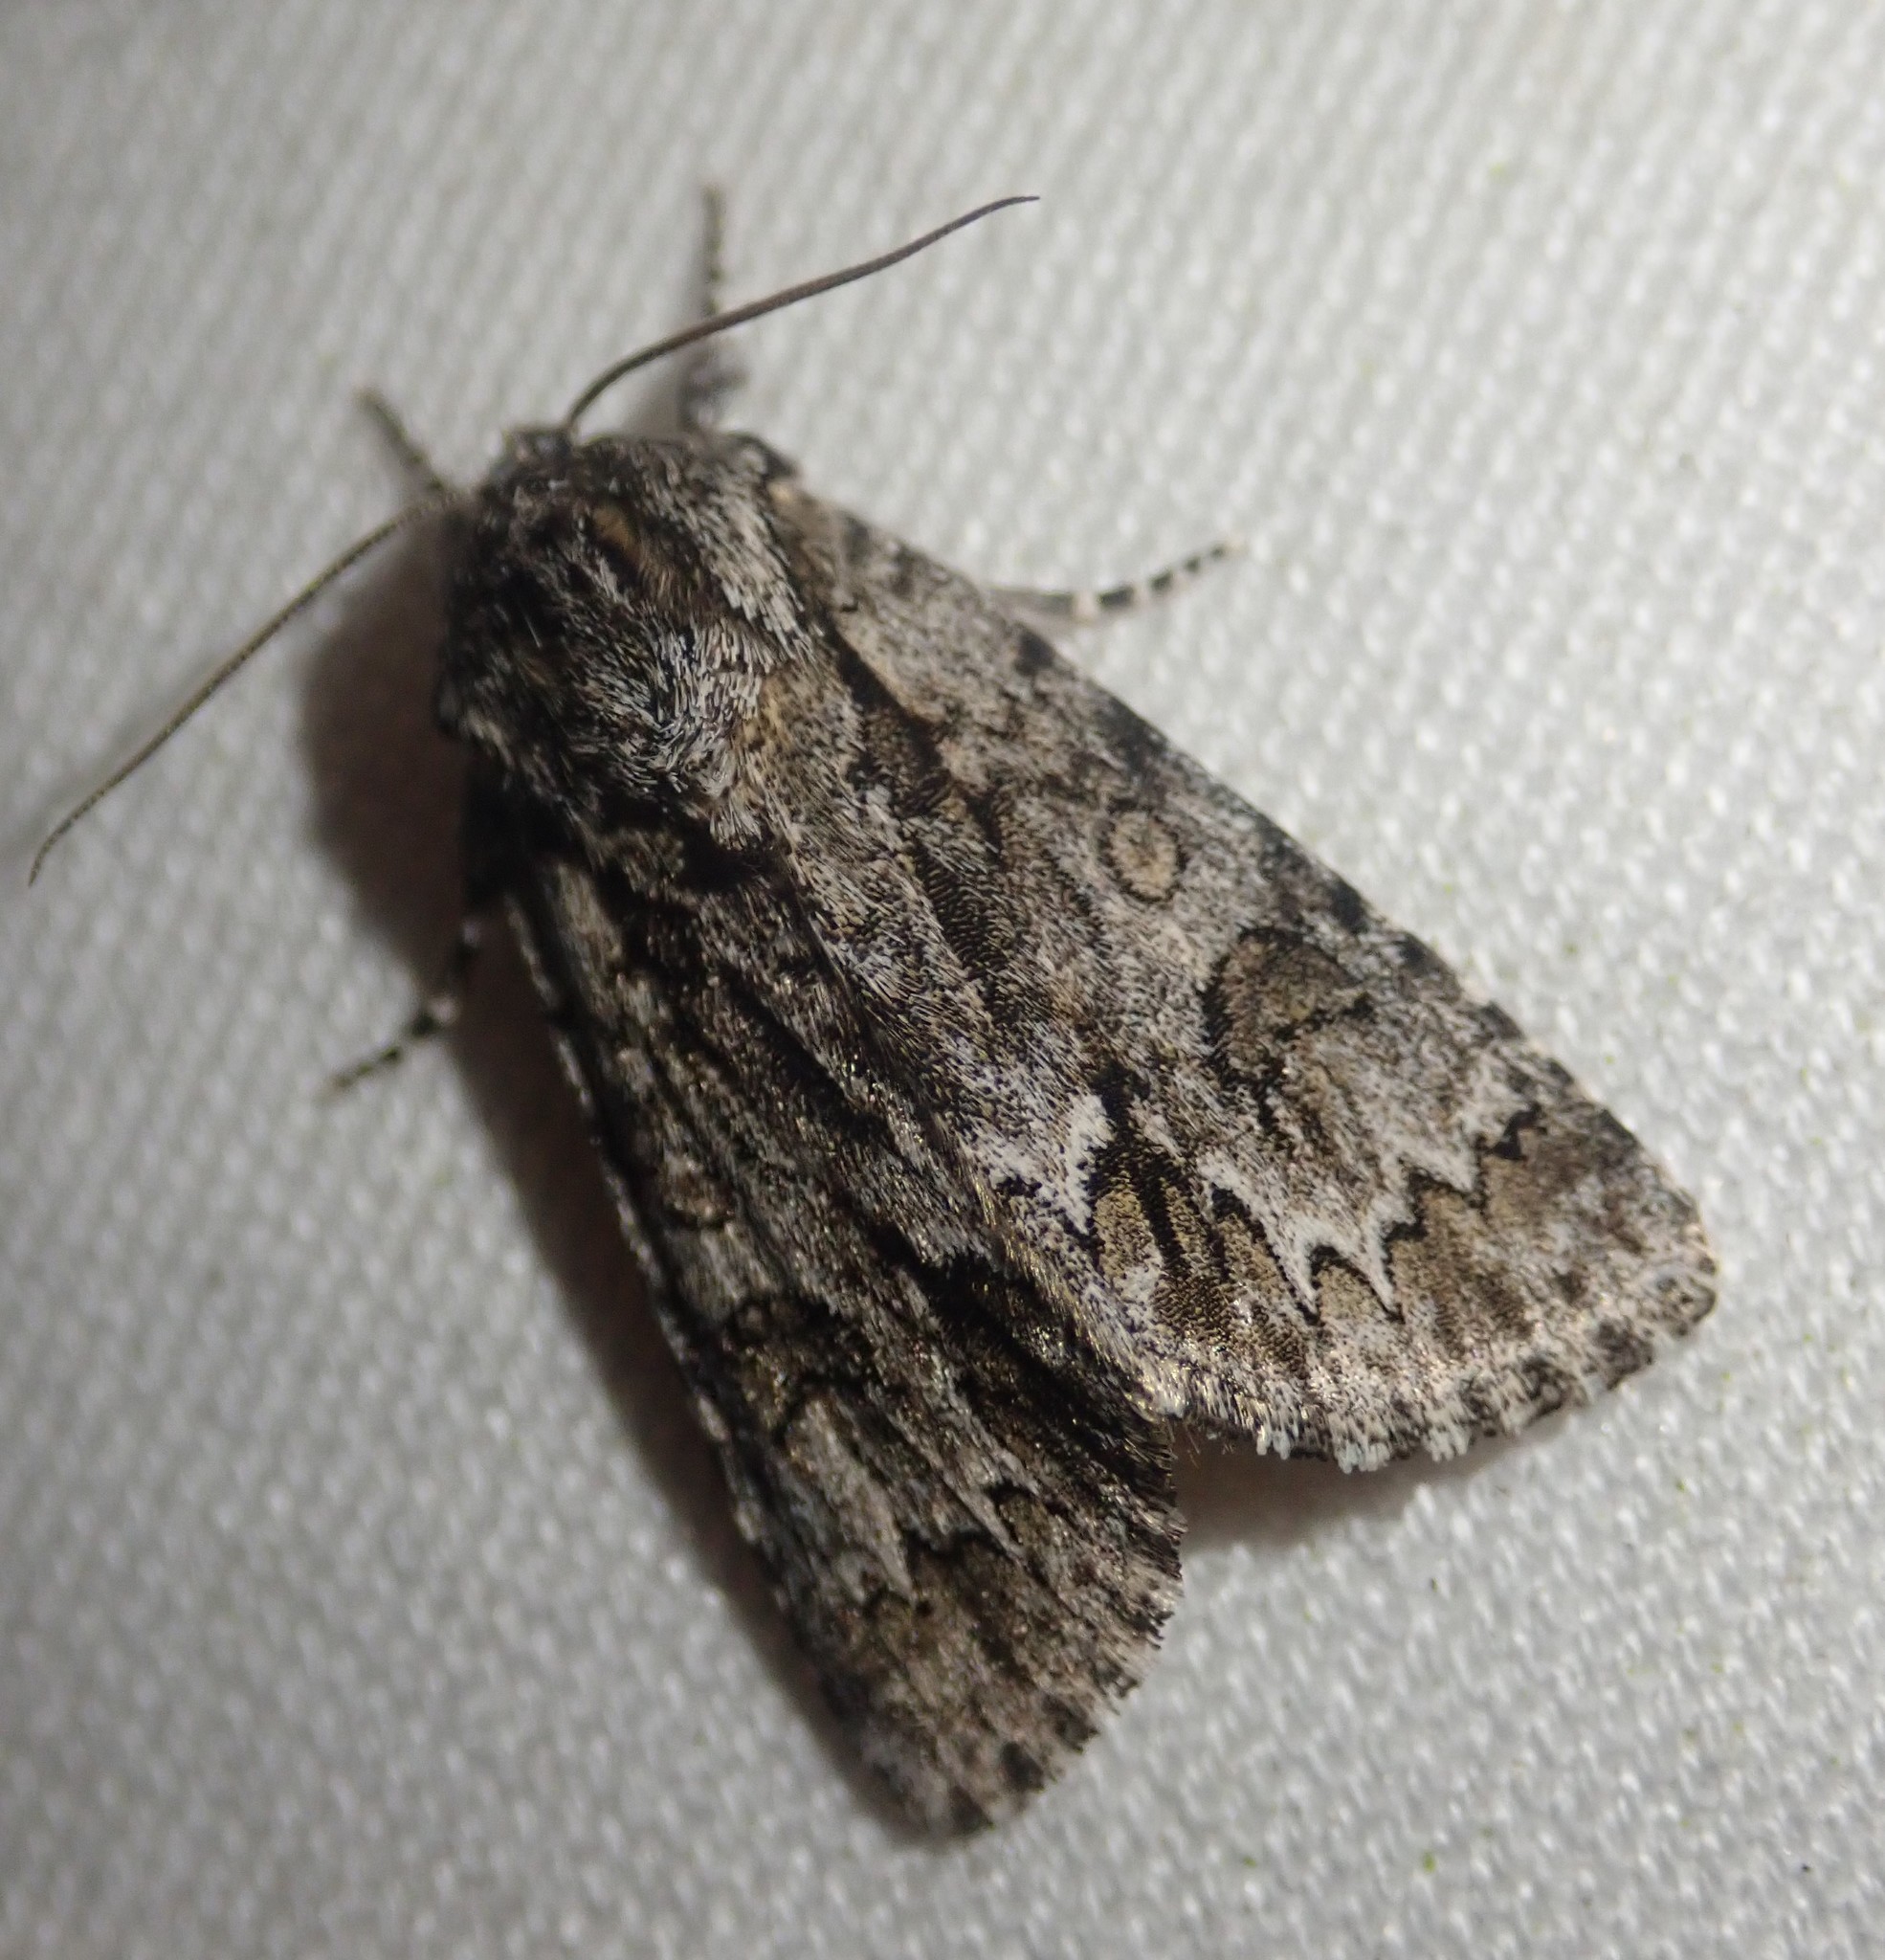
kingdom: Animalia
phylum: Arthropoda
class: Insecta
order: Lepidoptera
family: Noctuidae
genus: Acronicta
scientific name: Acronicta auricoma
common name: Scarce dagger
